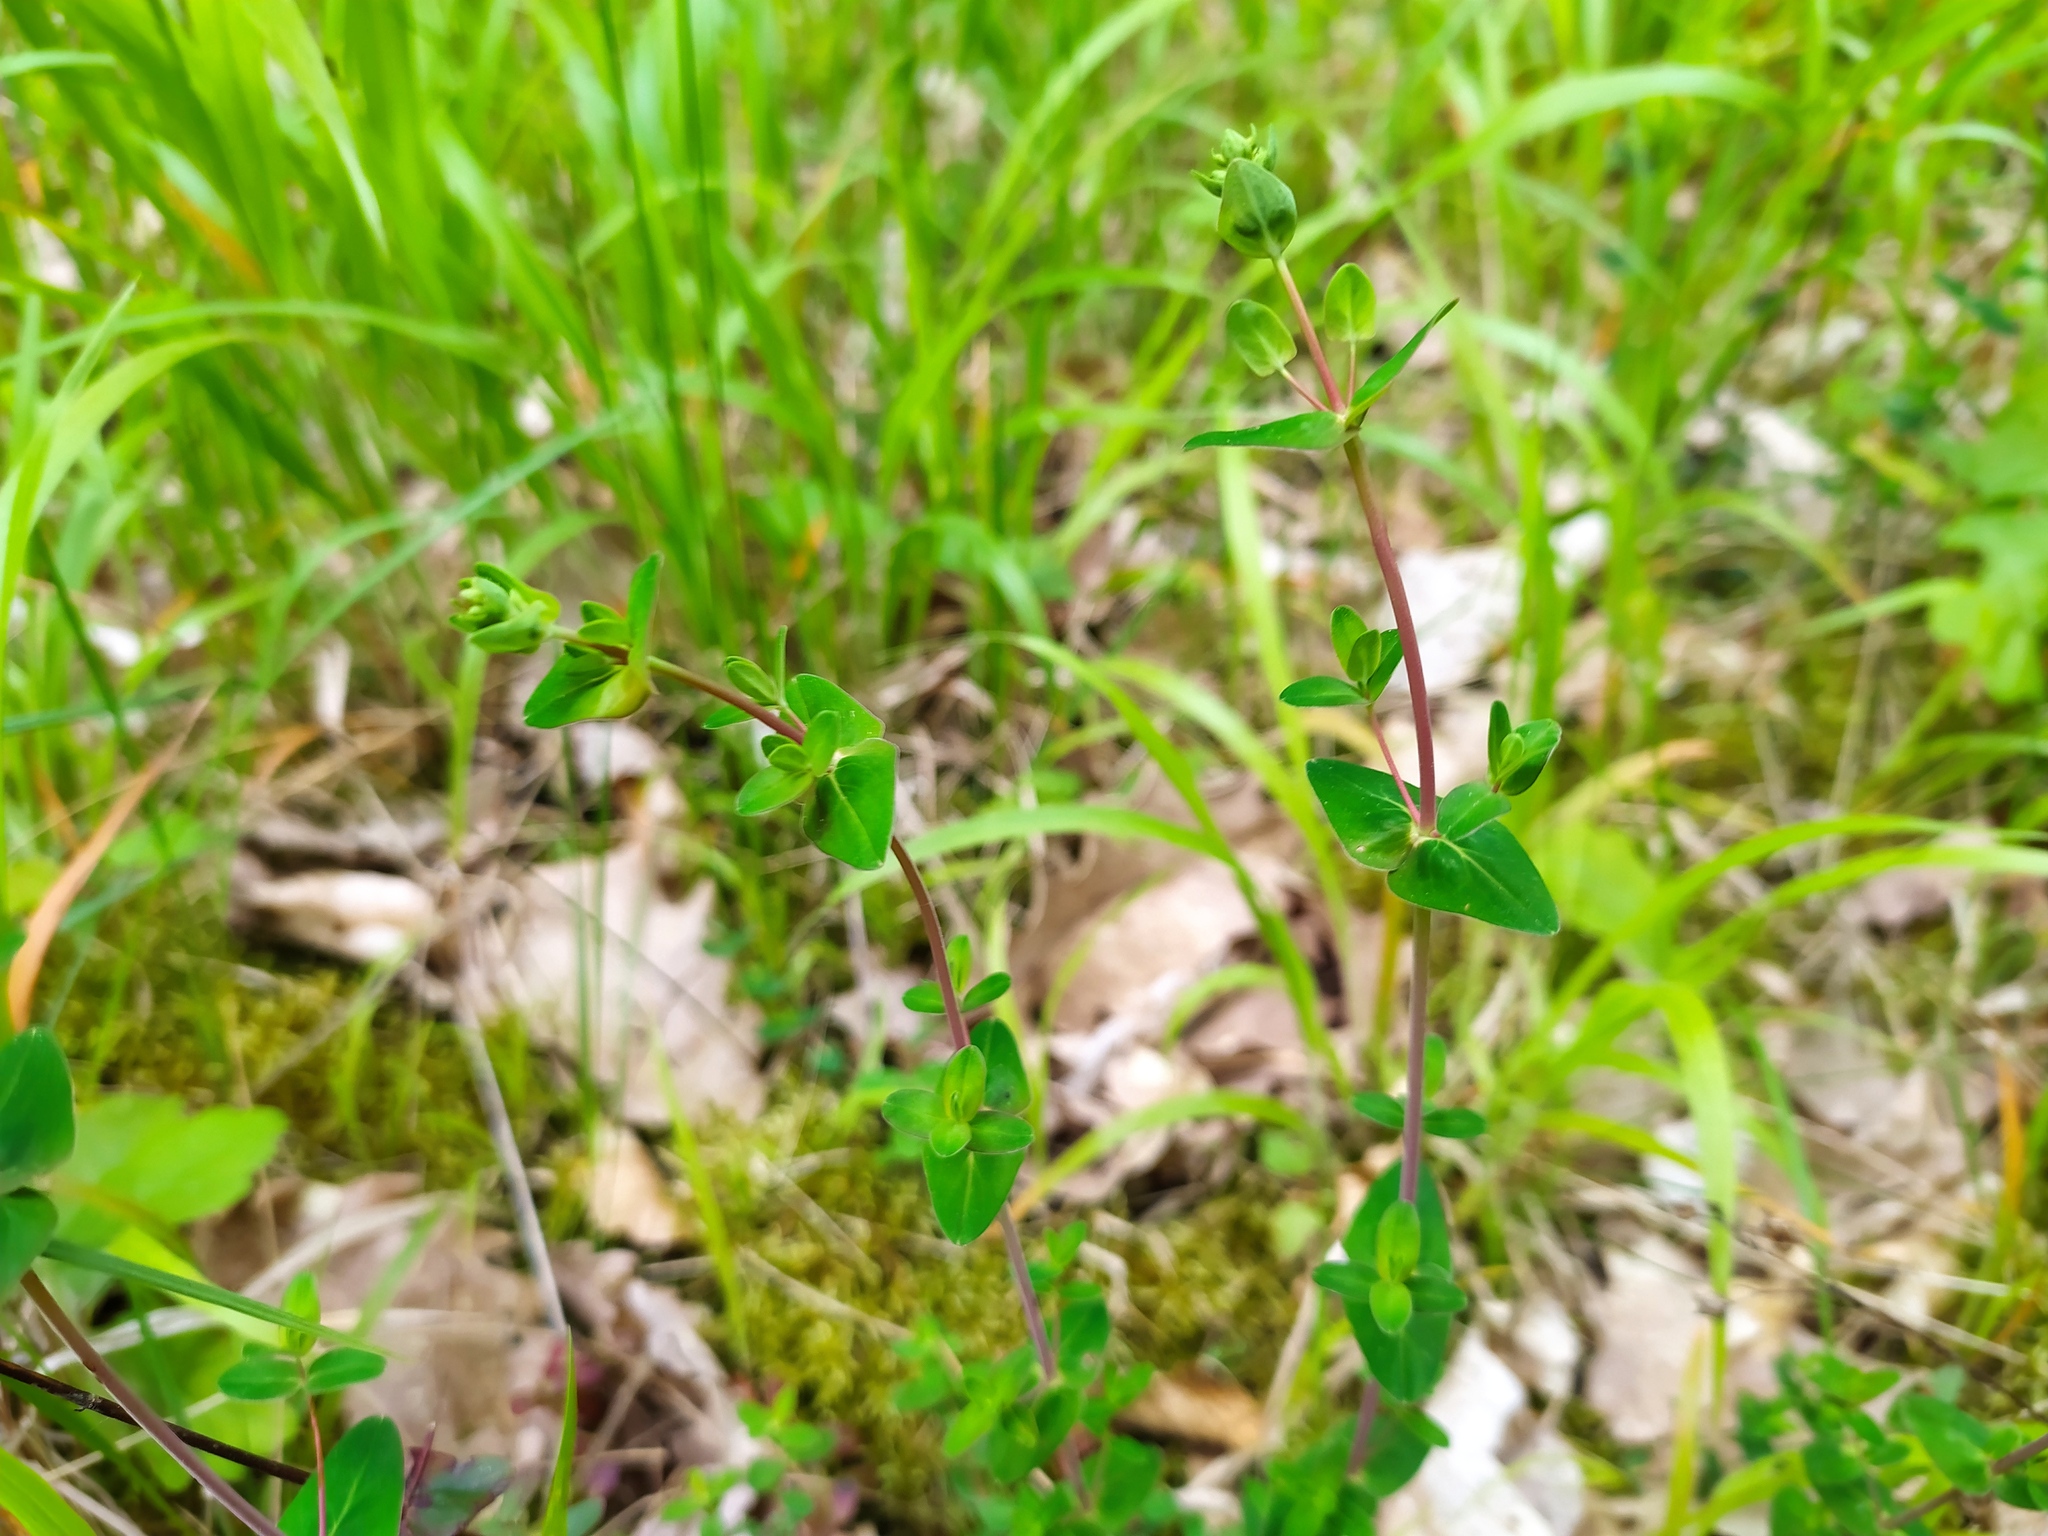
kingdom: Plantae
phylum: Tracheophyta
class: Magnoliopsida
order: Malpighiales
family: Hypericaceae
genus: Hypericum
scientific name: Hypericum pulchrum
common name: Slender st. john's-wort
